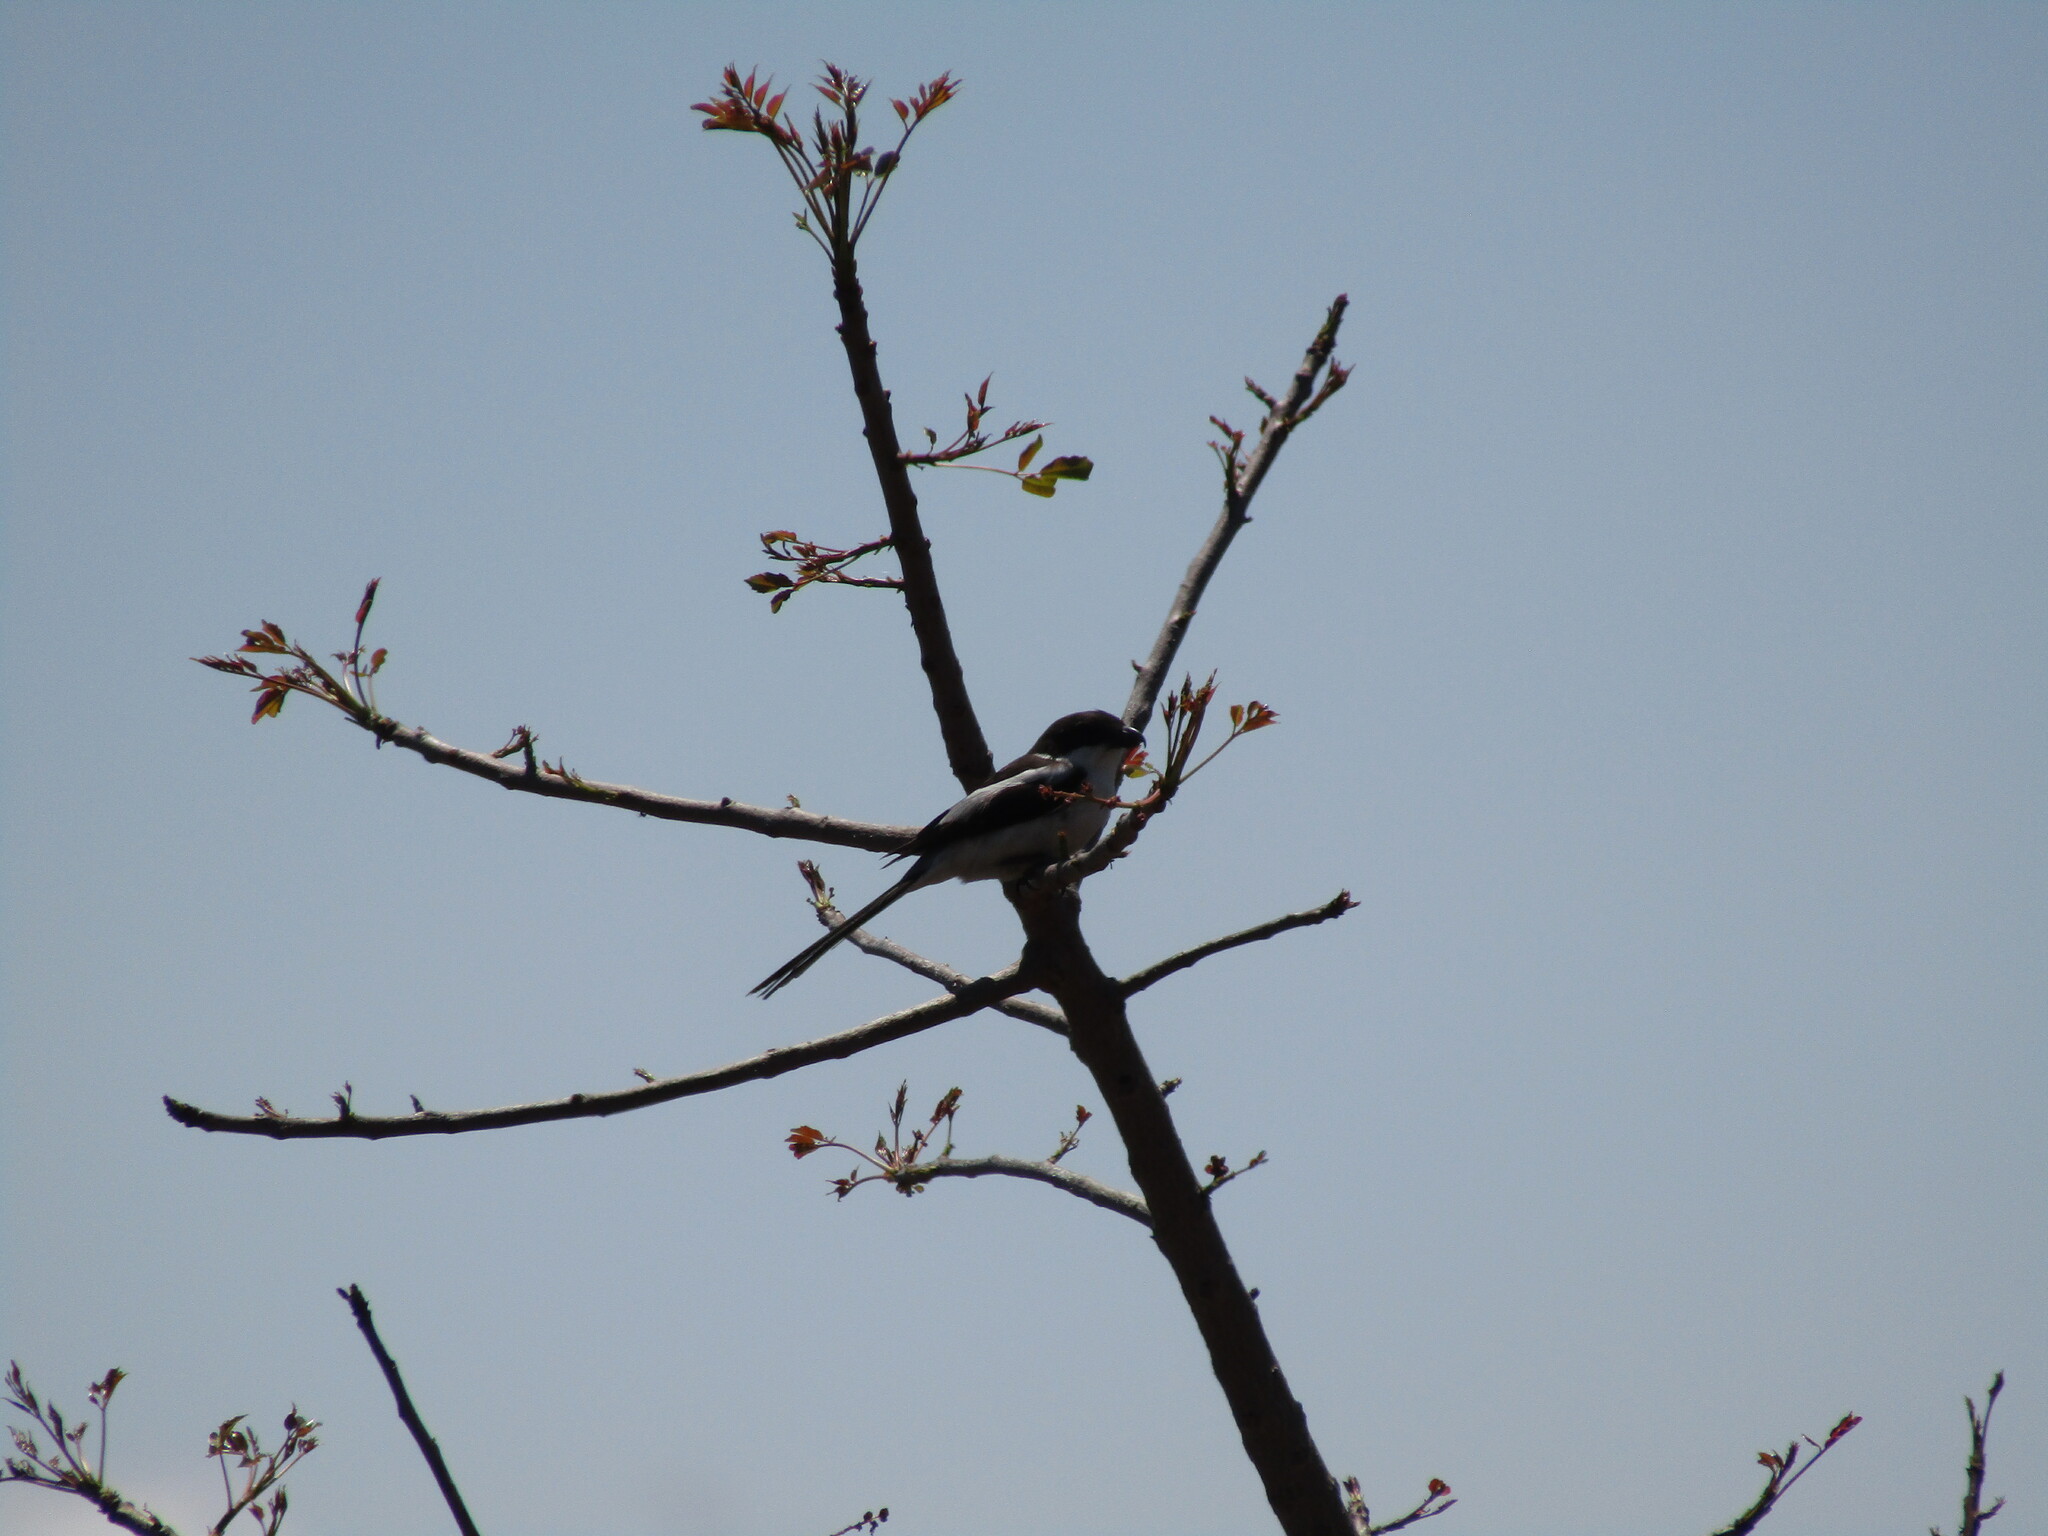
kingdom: Animalia
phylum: Chordata
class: Aves
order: Passeriformes
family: Laniidae
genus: Lanius
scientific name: Lanius collaris
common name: Southern fiscal
